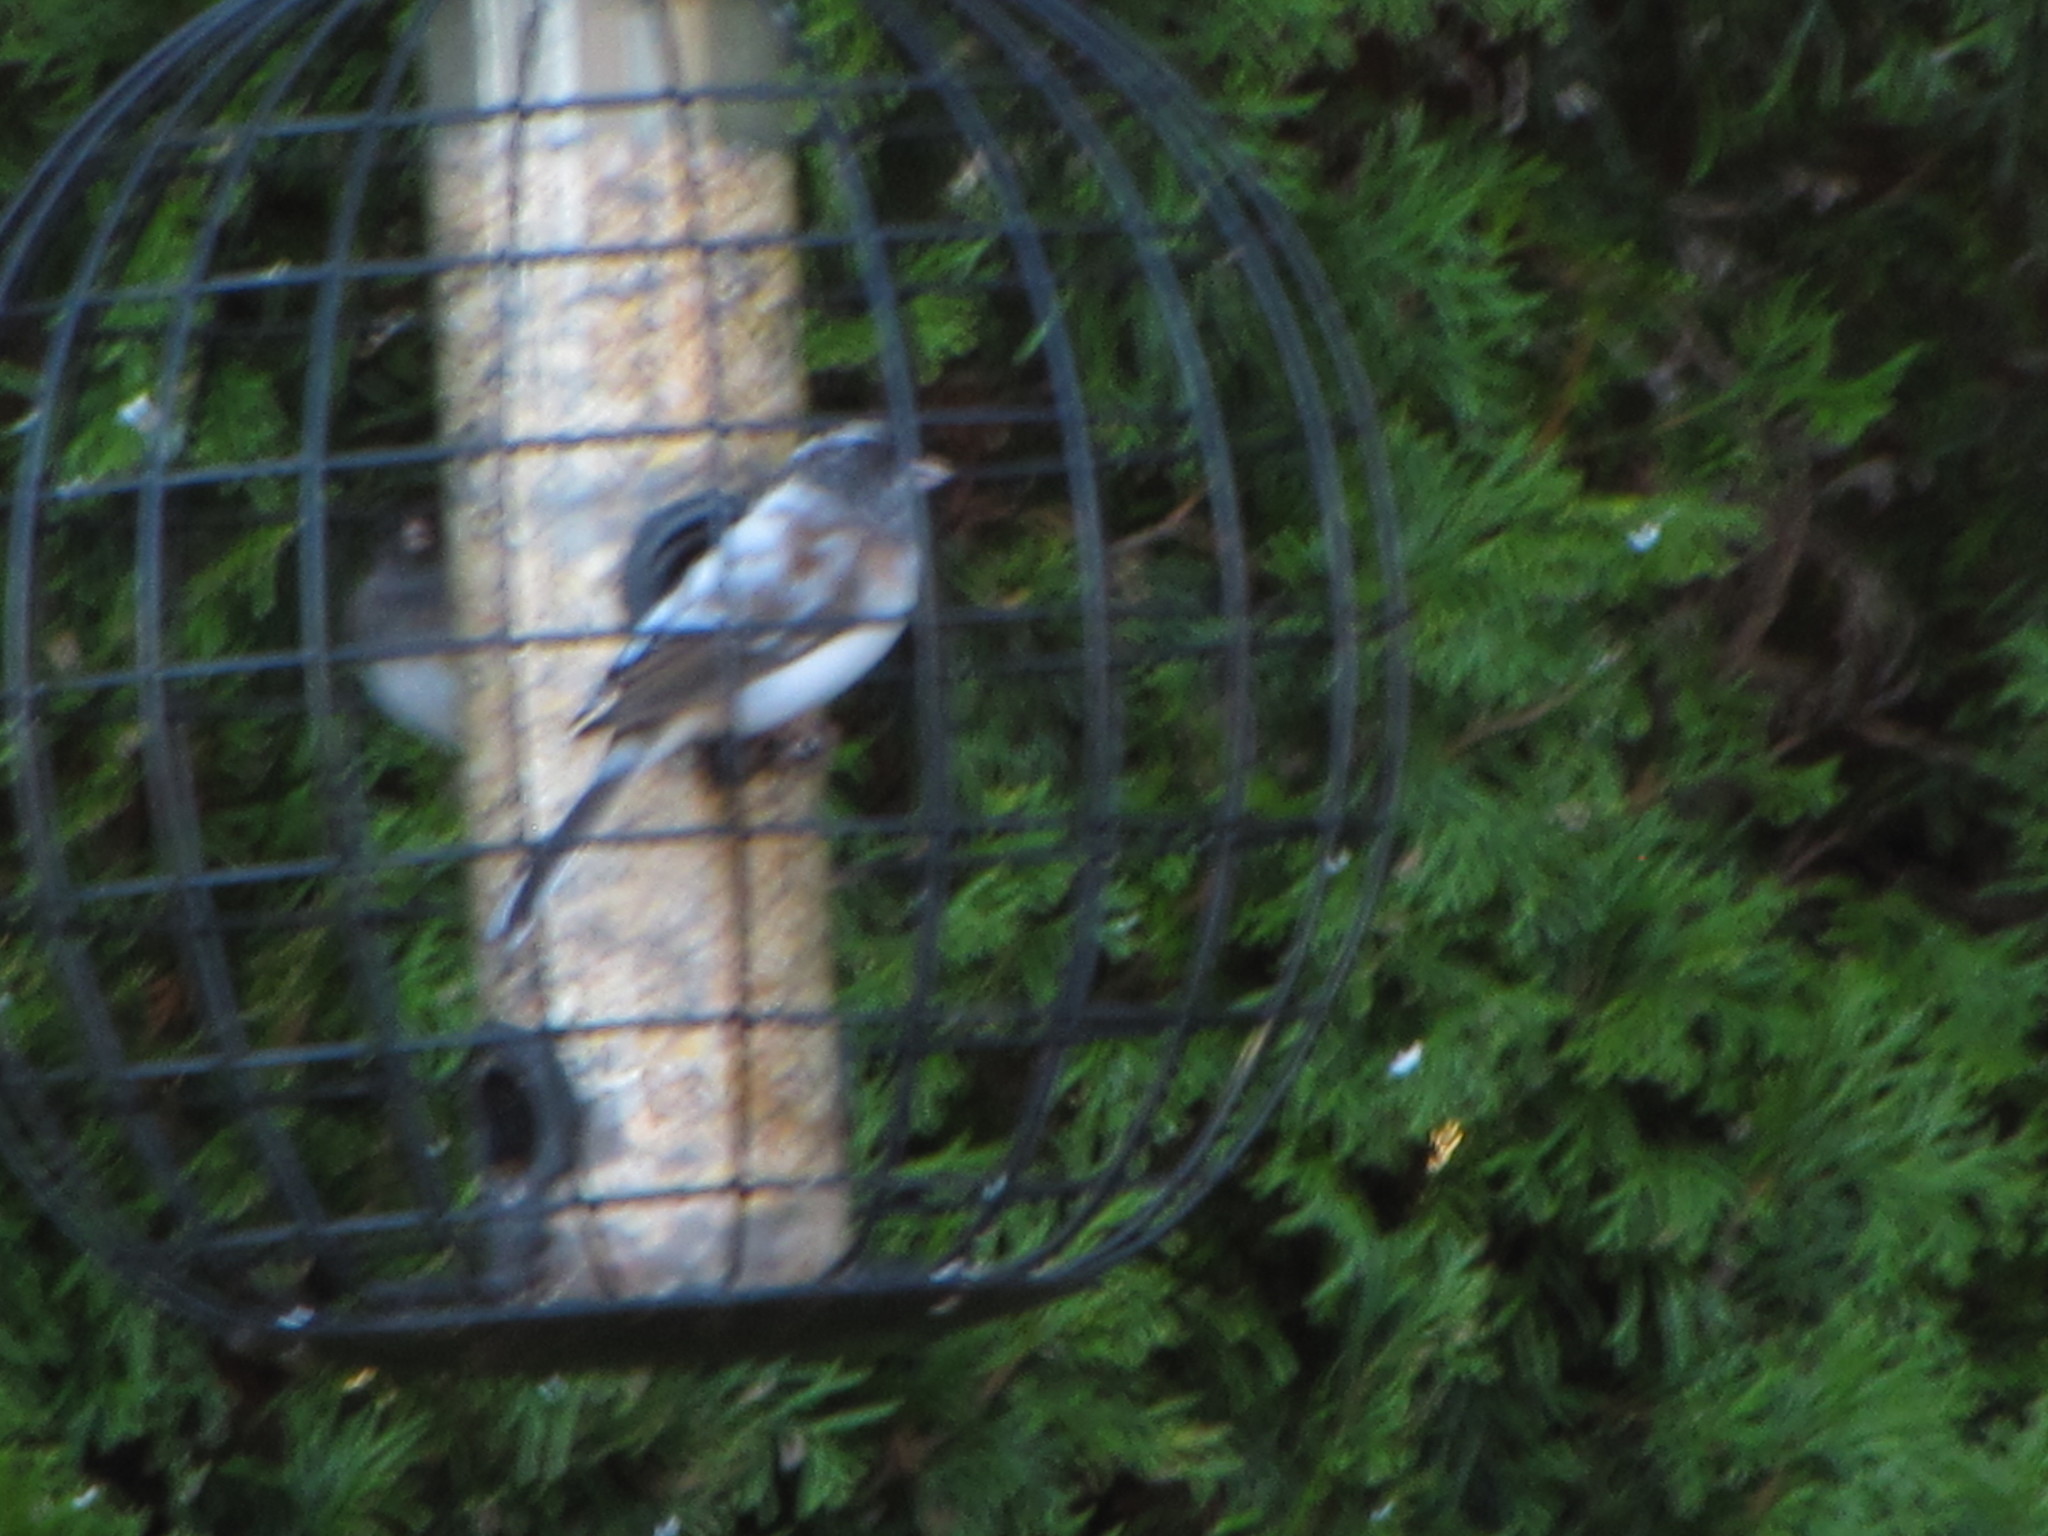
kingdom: Animalia
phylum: Chordata
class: Aves
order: Passeriformes
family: Passerellidae
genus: Junco
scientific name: Junco hyemalis
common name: Dark-eyed junco
